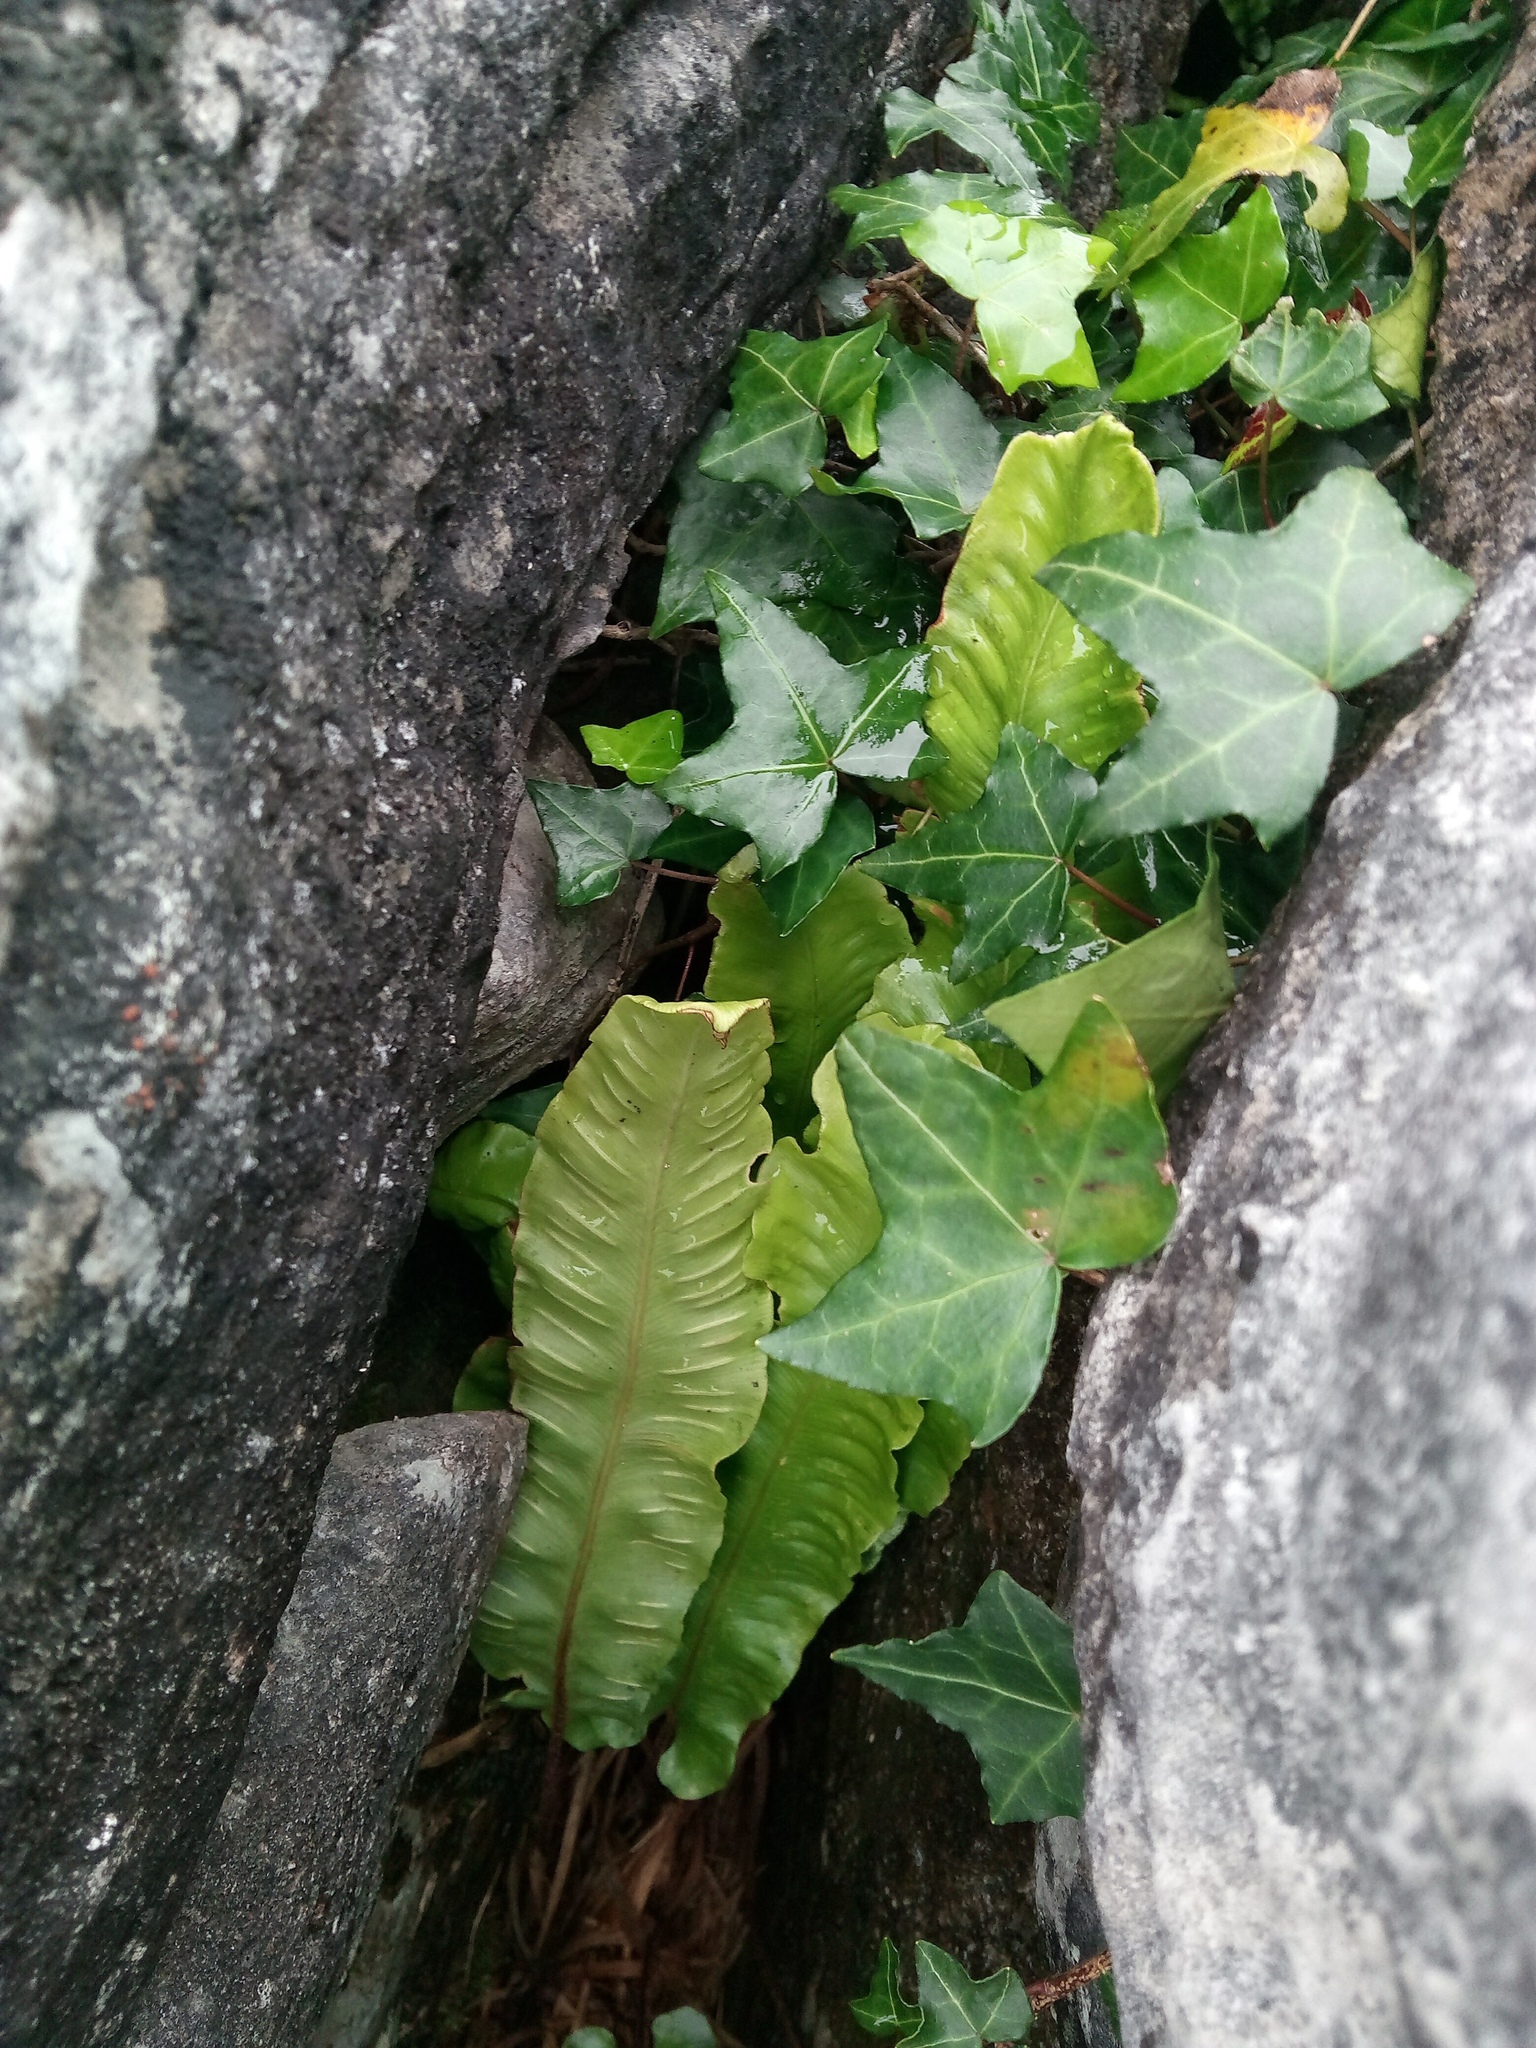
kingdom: Plantae
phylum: Tracheophyta
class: Magnoliopsida
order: Apiales
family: Araliaceae
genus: Hedera
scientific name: Hedera helix
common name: Ivy
